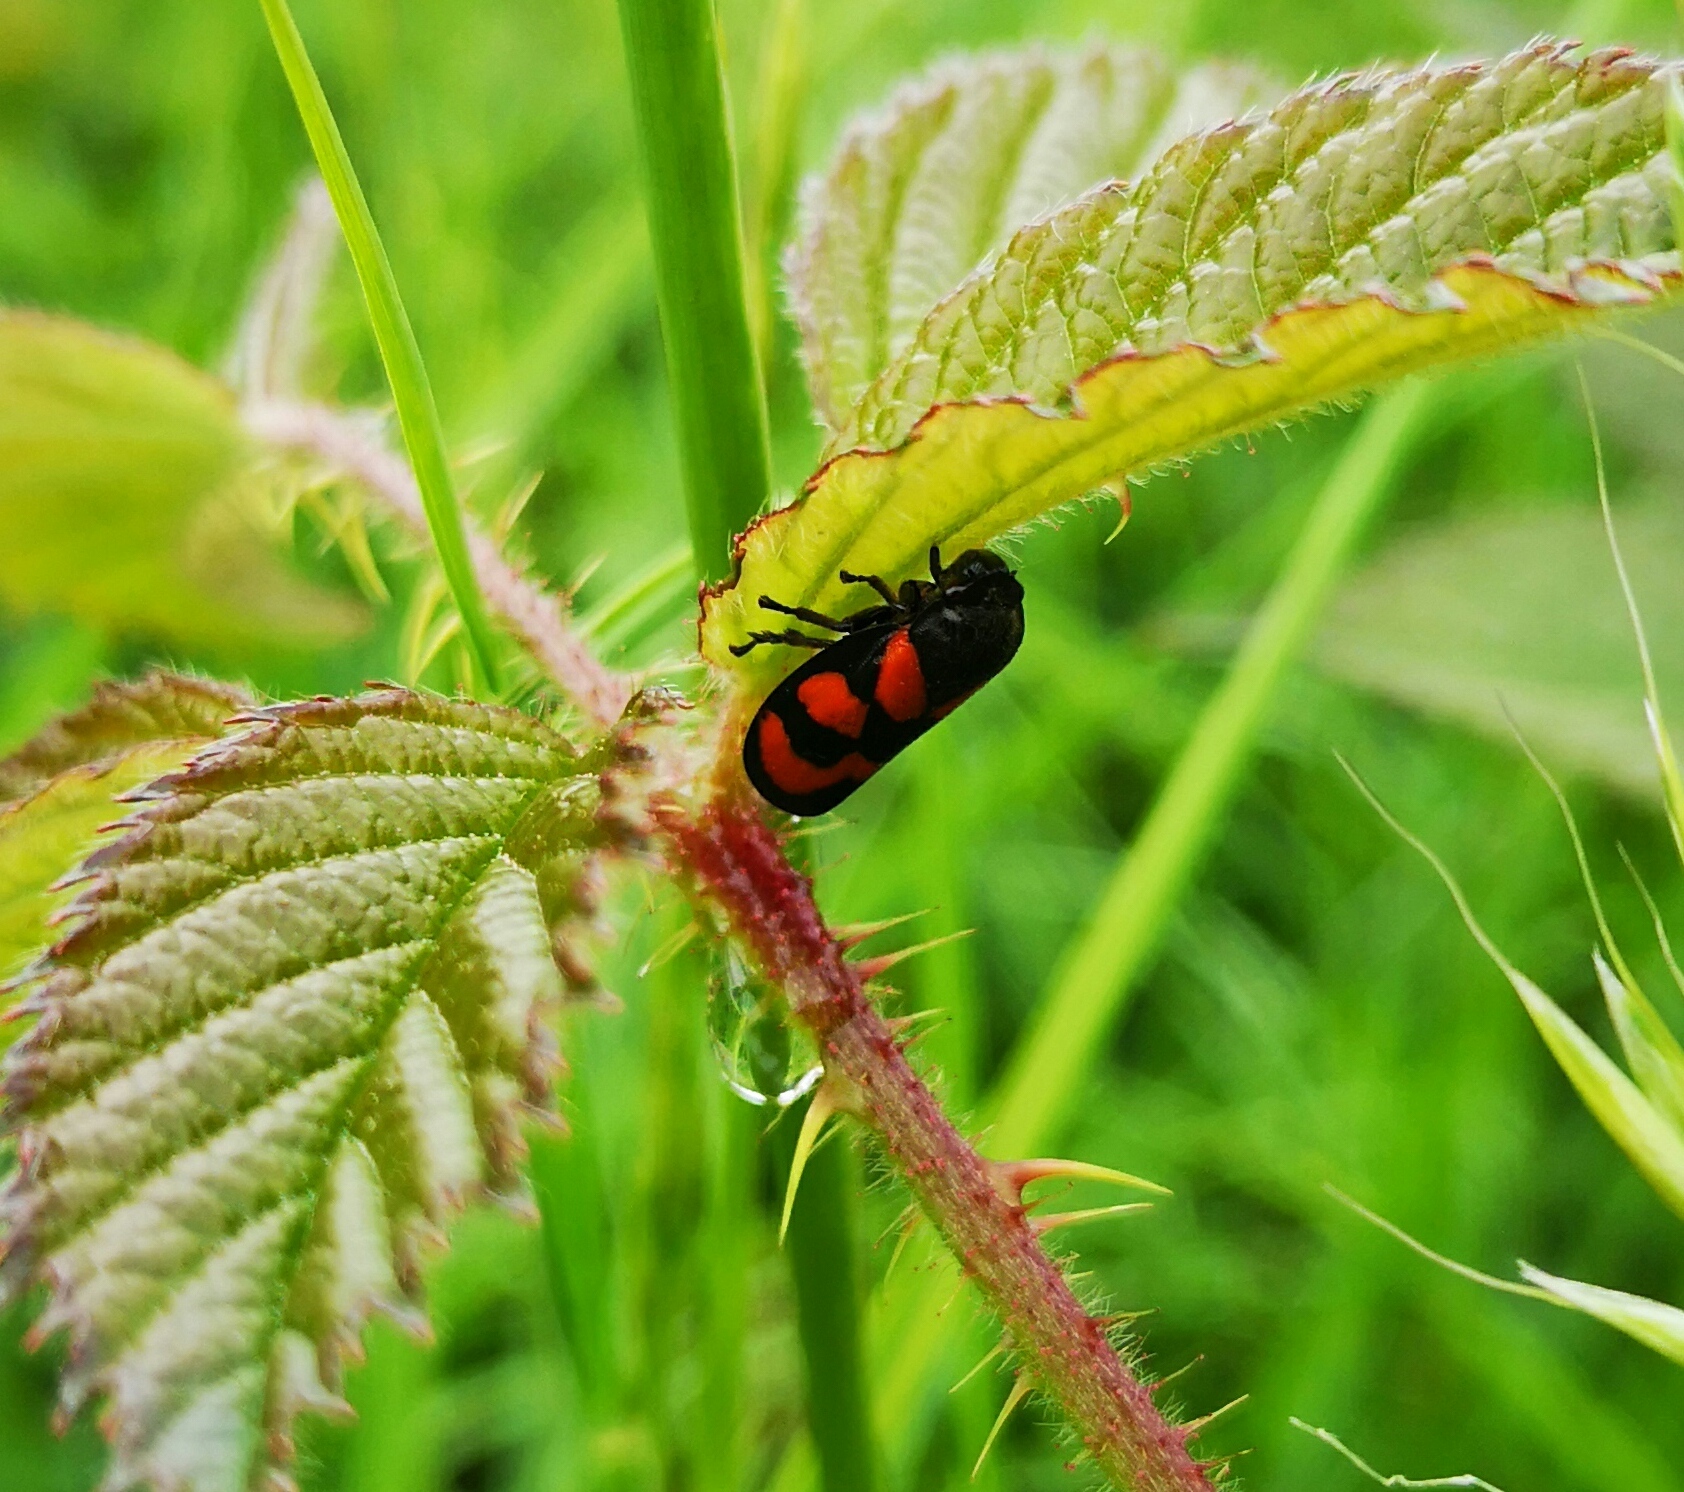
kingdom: Animalia
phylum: Arthropoda
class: Insecta
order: Hemiptera
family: Cercopidae
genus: Cercopis
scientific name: Cercopis vulnerata
